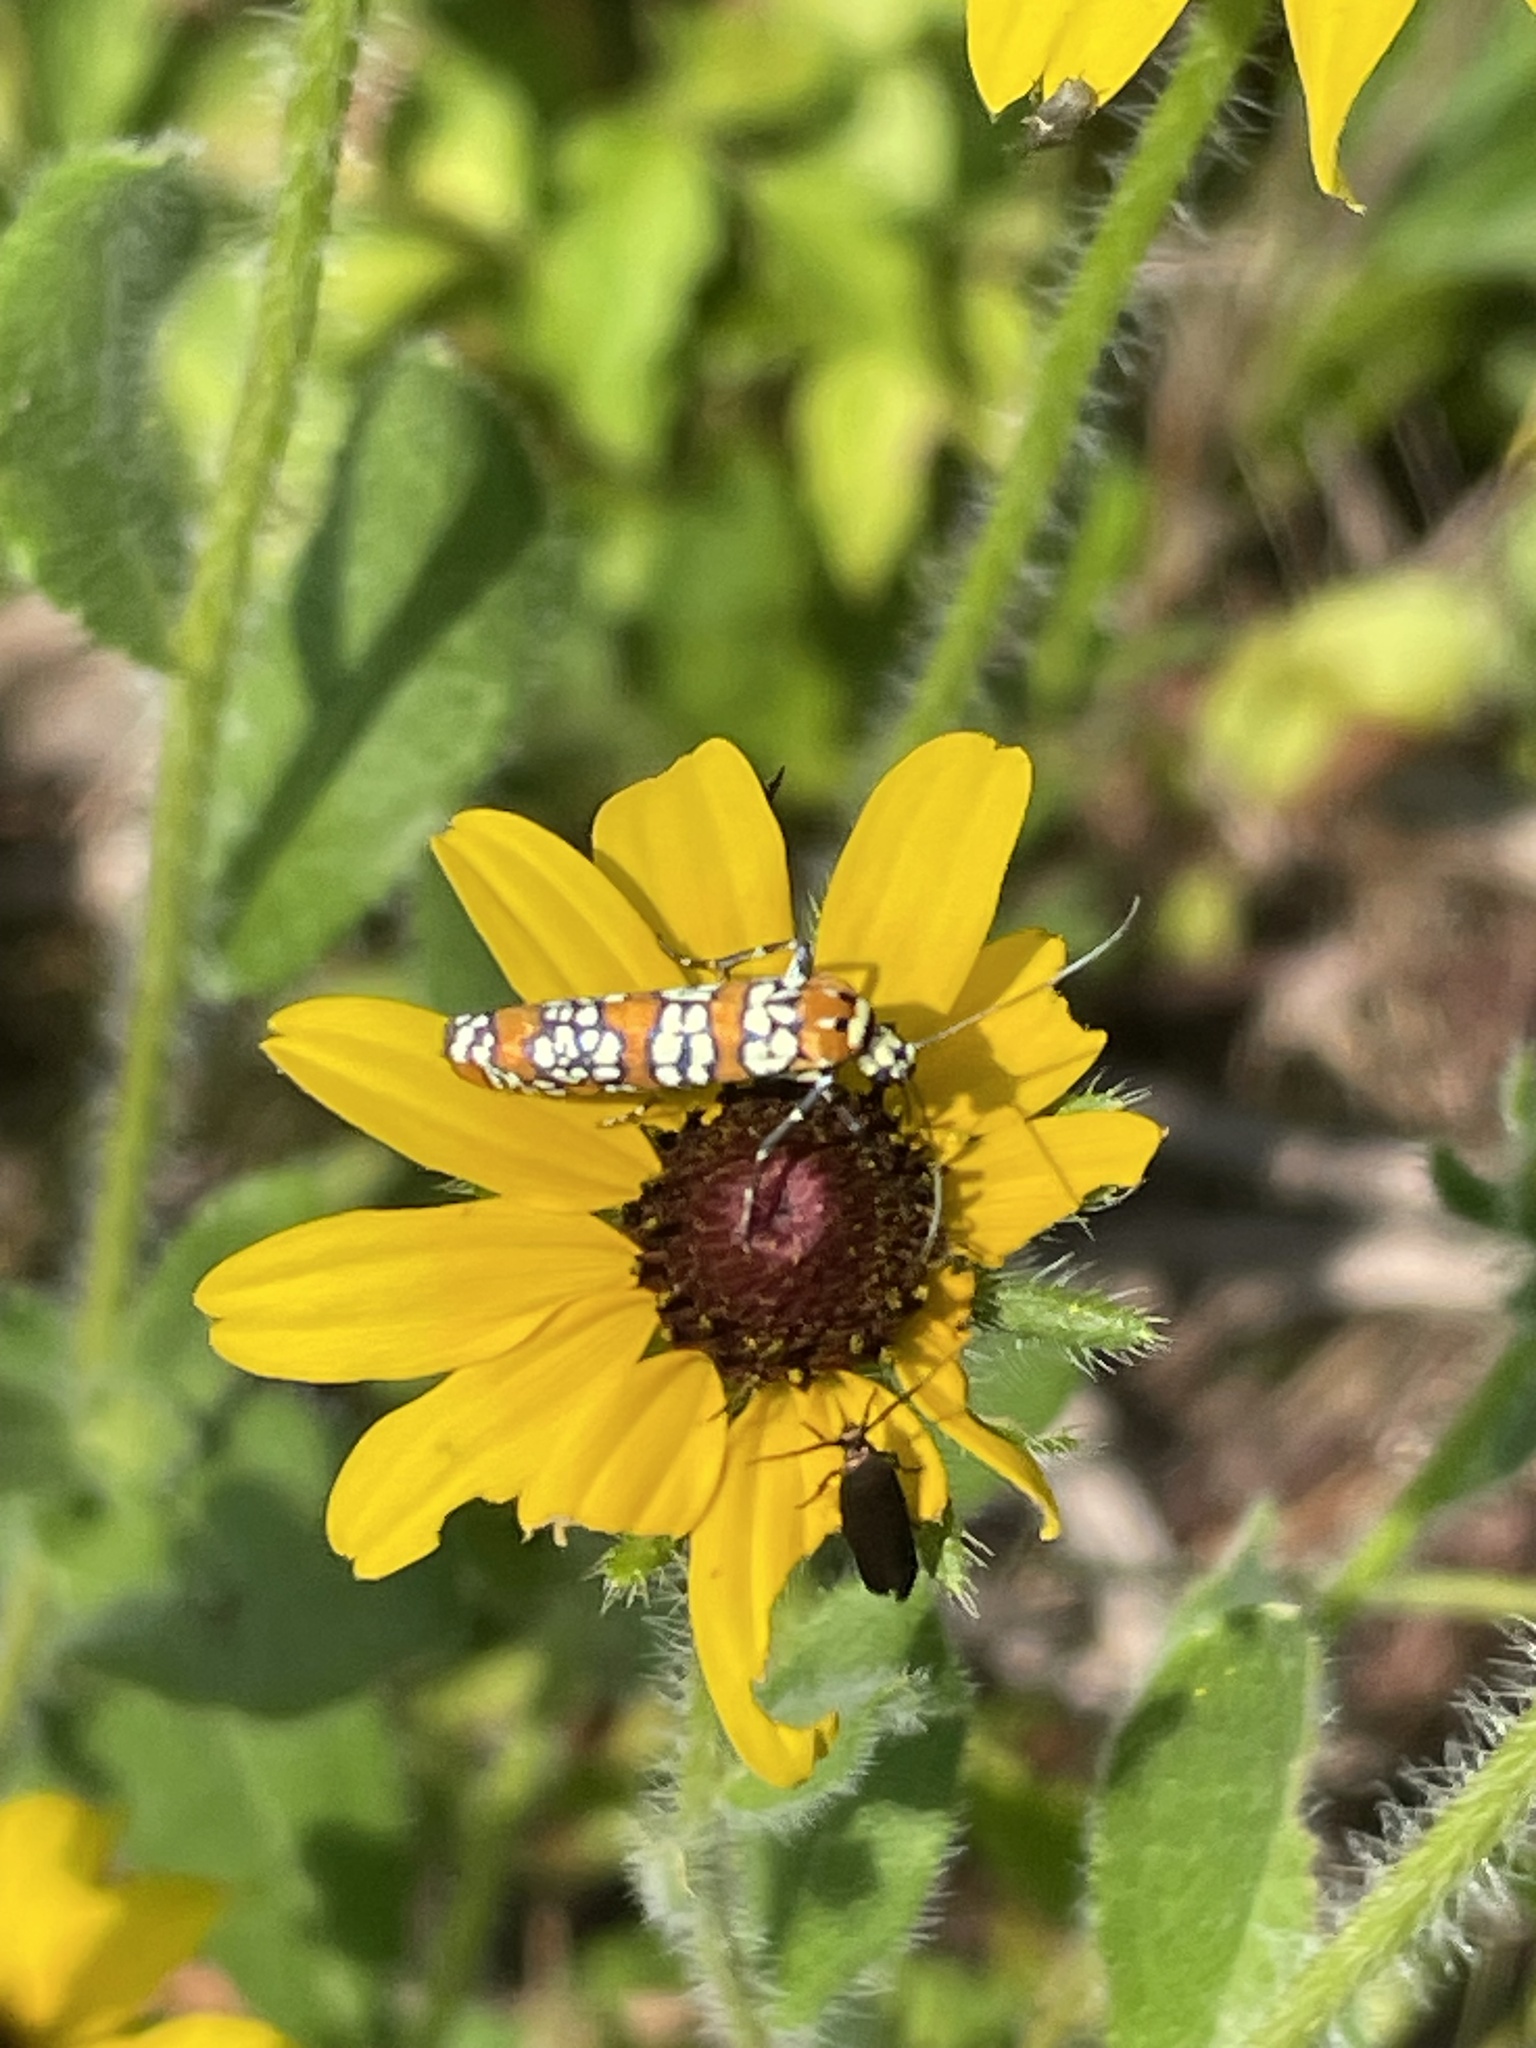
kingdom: Animalia
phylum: Arthropoda
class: Insecta
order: Lepidoptera
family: Attevidae
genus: Atteva
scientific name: Atteva punctella
